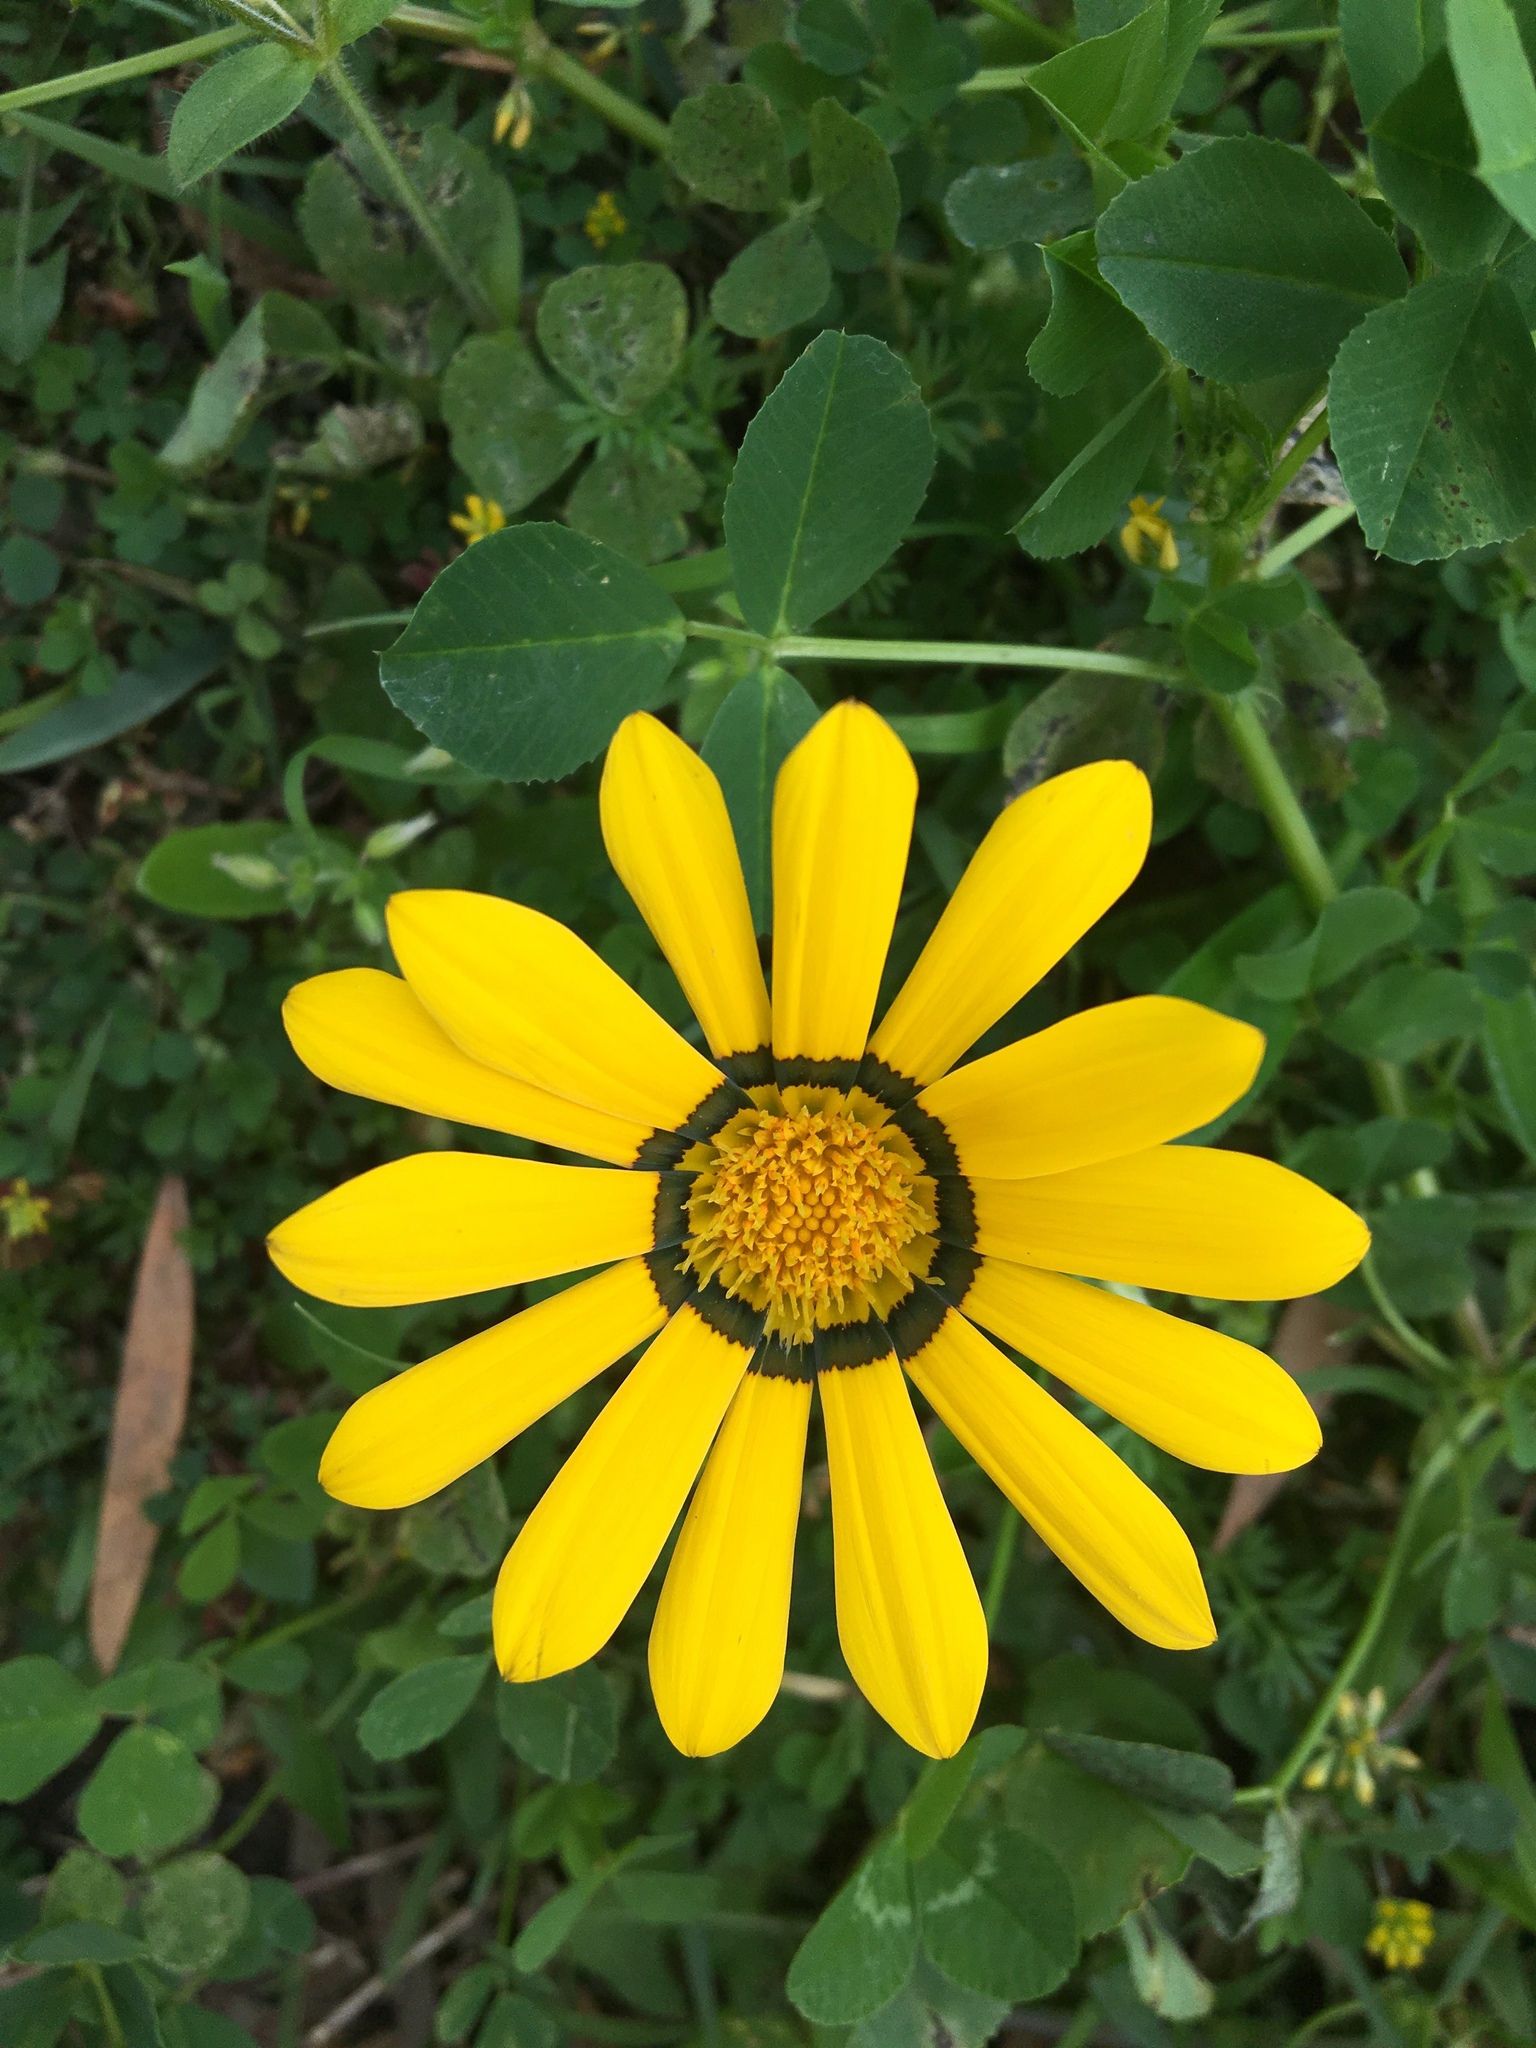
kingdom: Plantae
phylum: Tracheophyta
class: Magnoliopsida
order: Asterales
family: Asteraceae
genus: Gazania
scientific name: Gazania splendens
